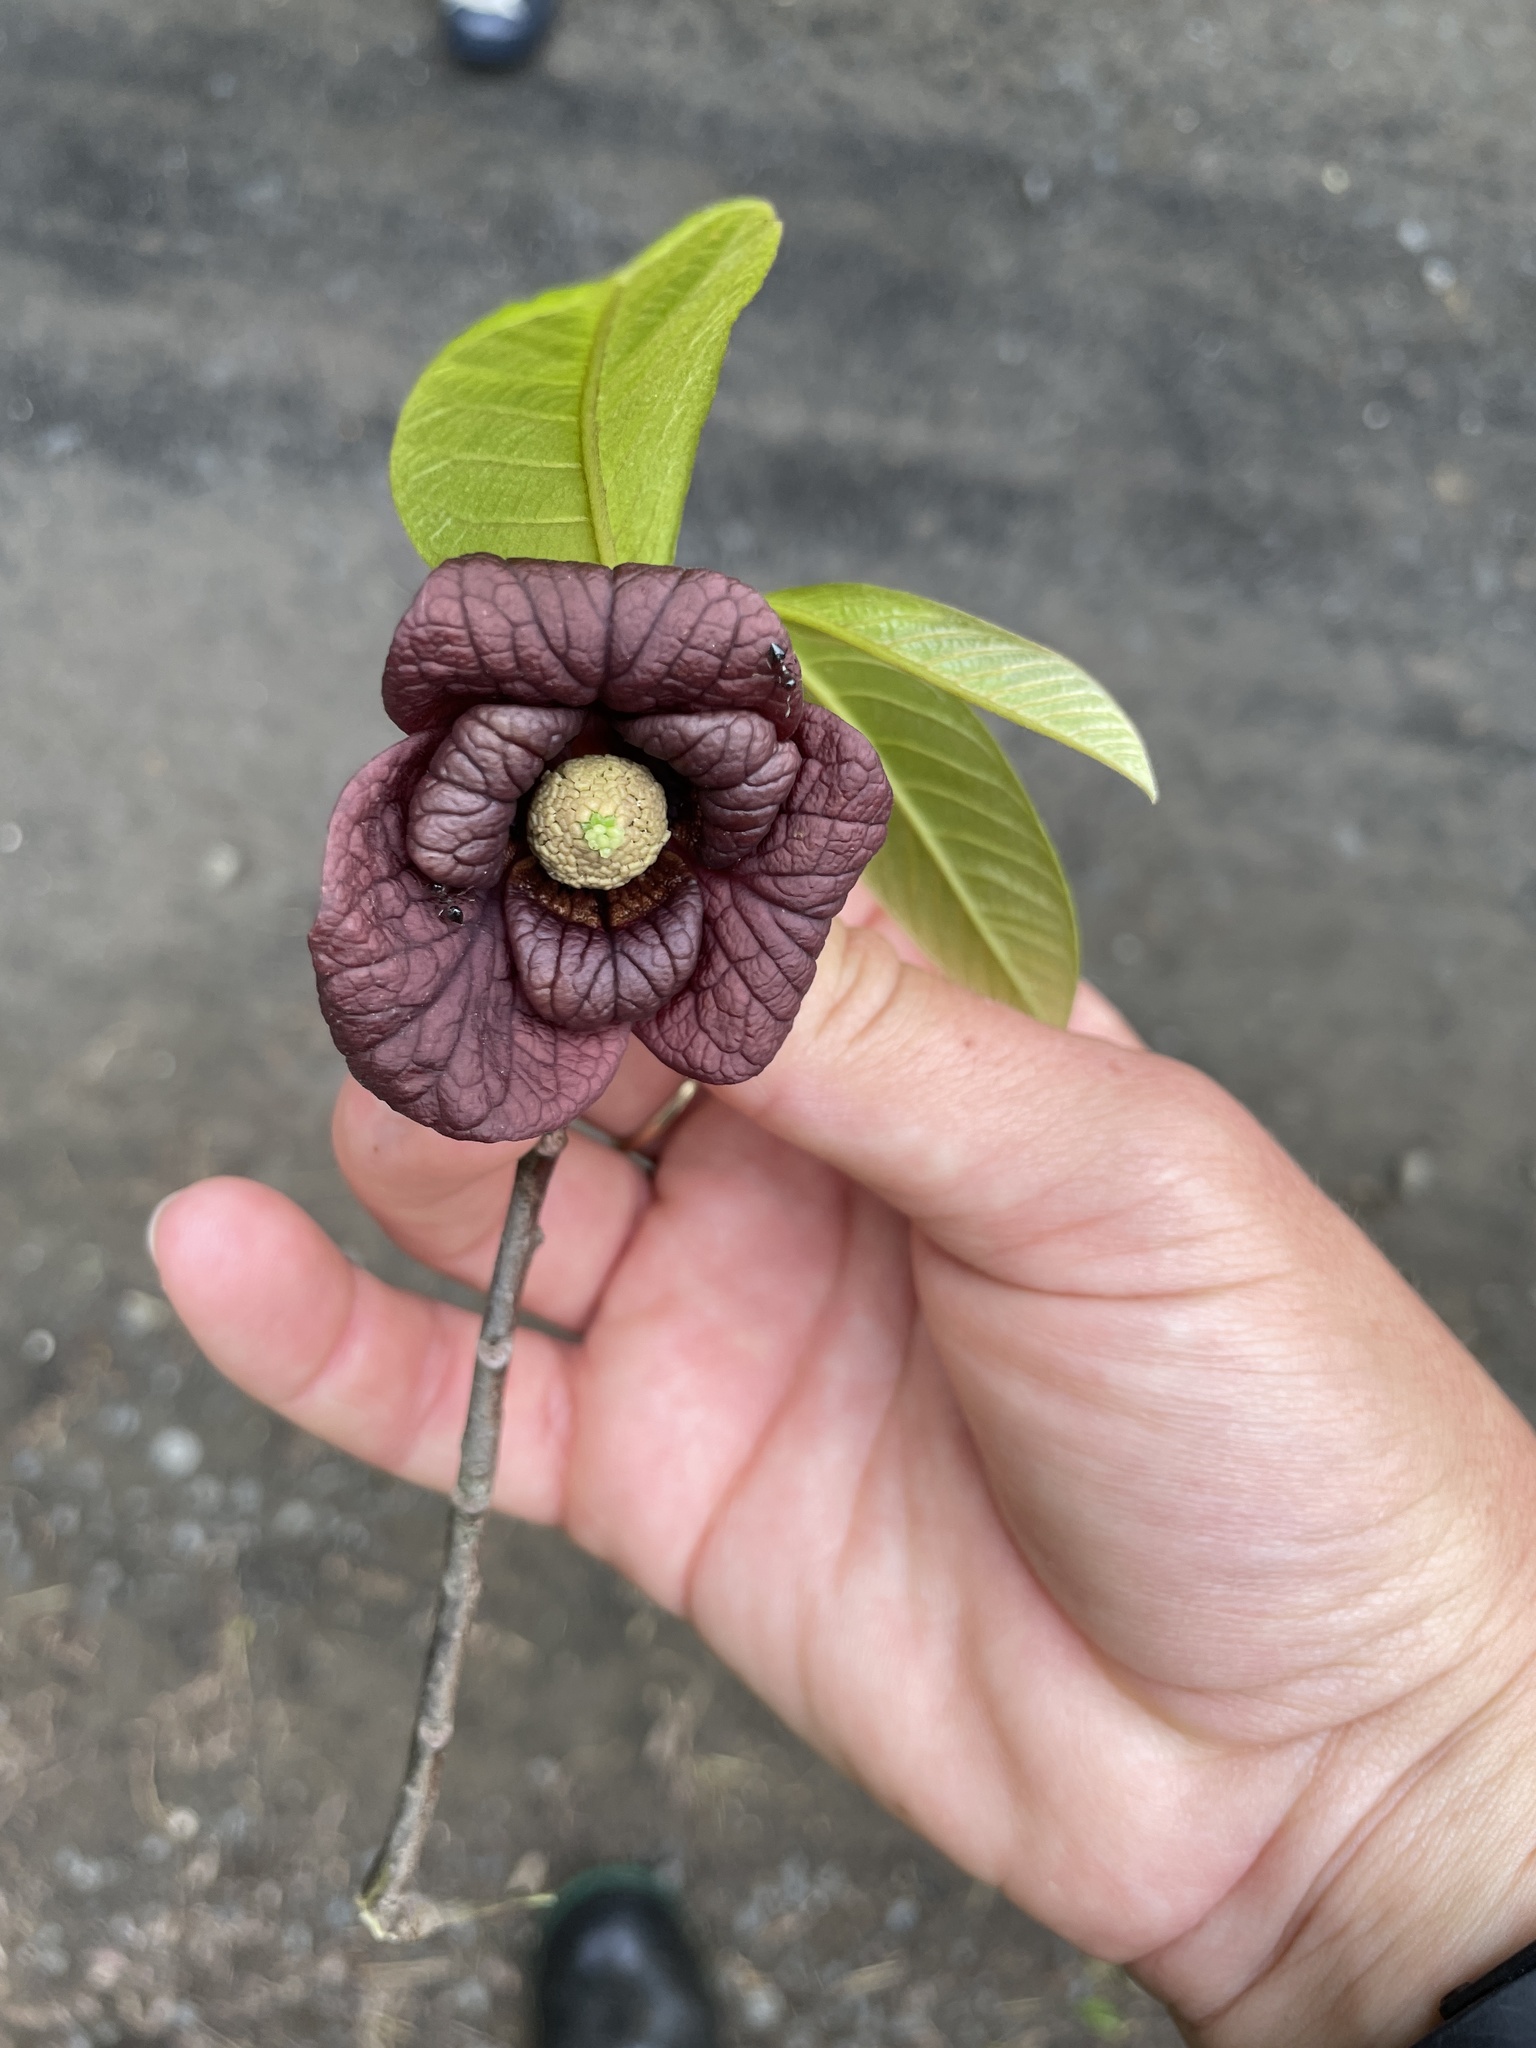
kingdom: Plantae
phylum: Tracheophyta
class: Magnoliopsida
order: Magnoliales
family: Annonaceae
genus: Asimina
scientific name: Asimina triloba
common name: Dog-banana
